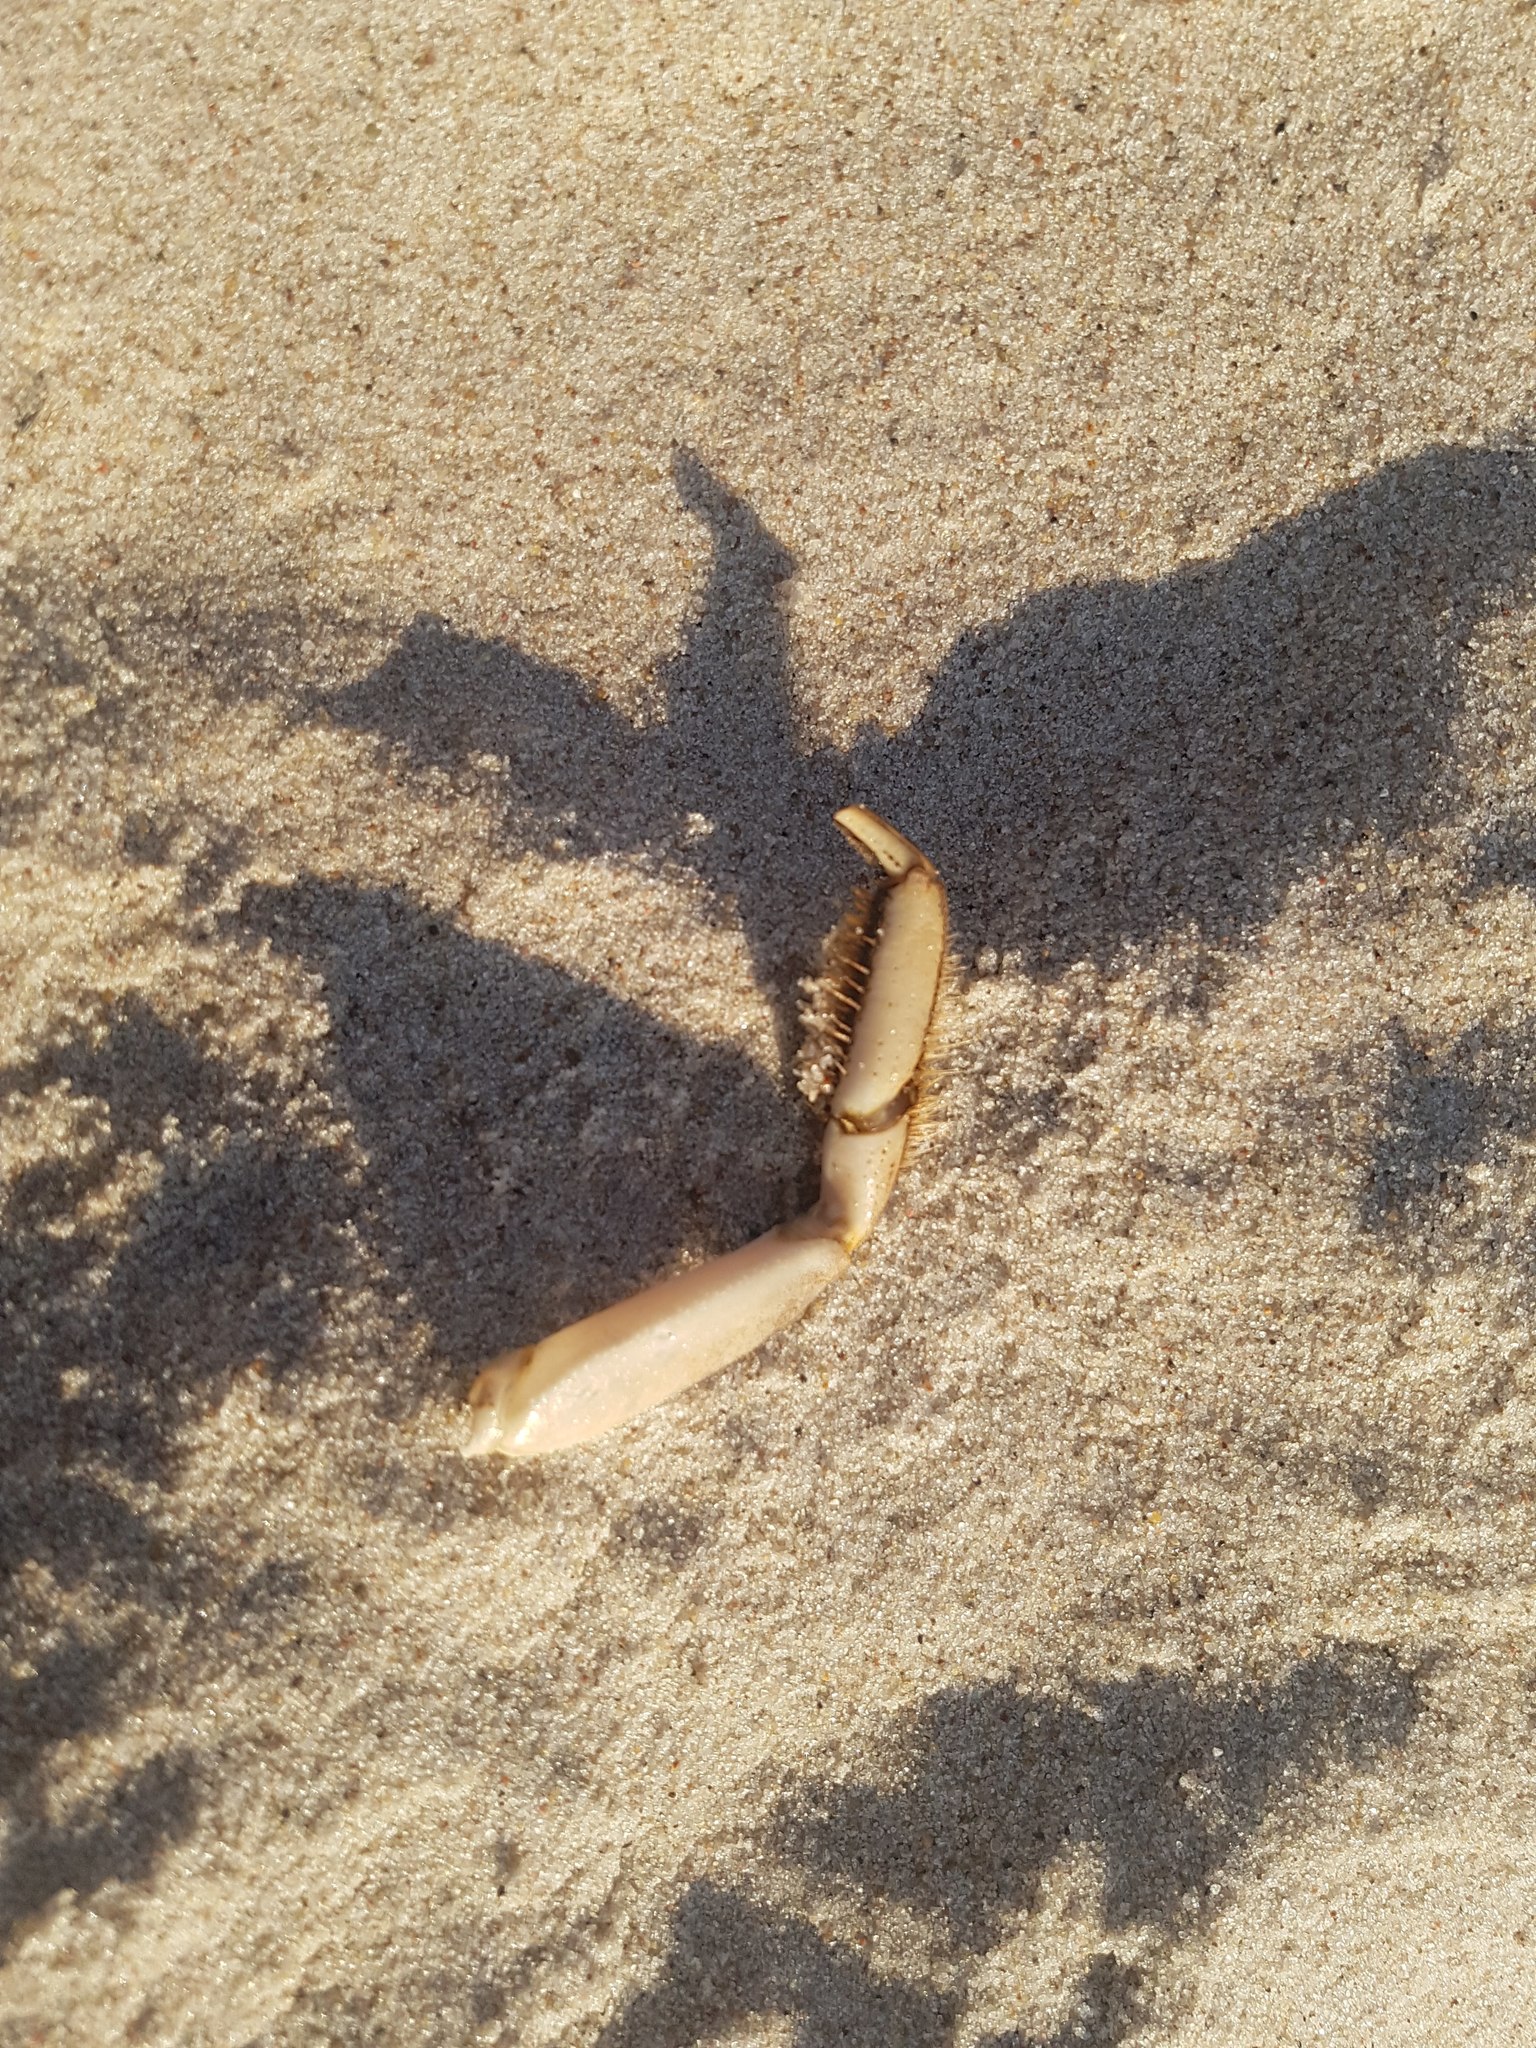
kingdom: Animalia
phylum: Arthropoda
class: Malacostraca
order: Decapoda
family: Varunidae
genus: Eriocheir
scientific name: Eriocheir sinensis
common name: Chinese mitten crab
